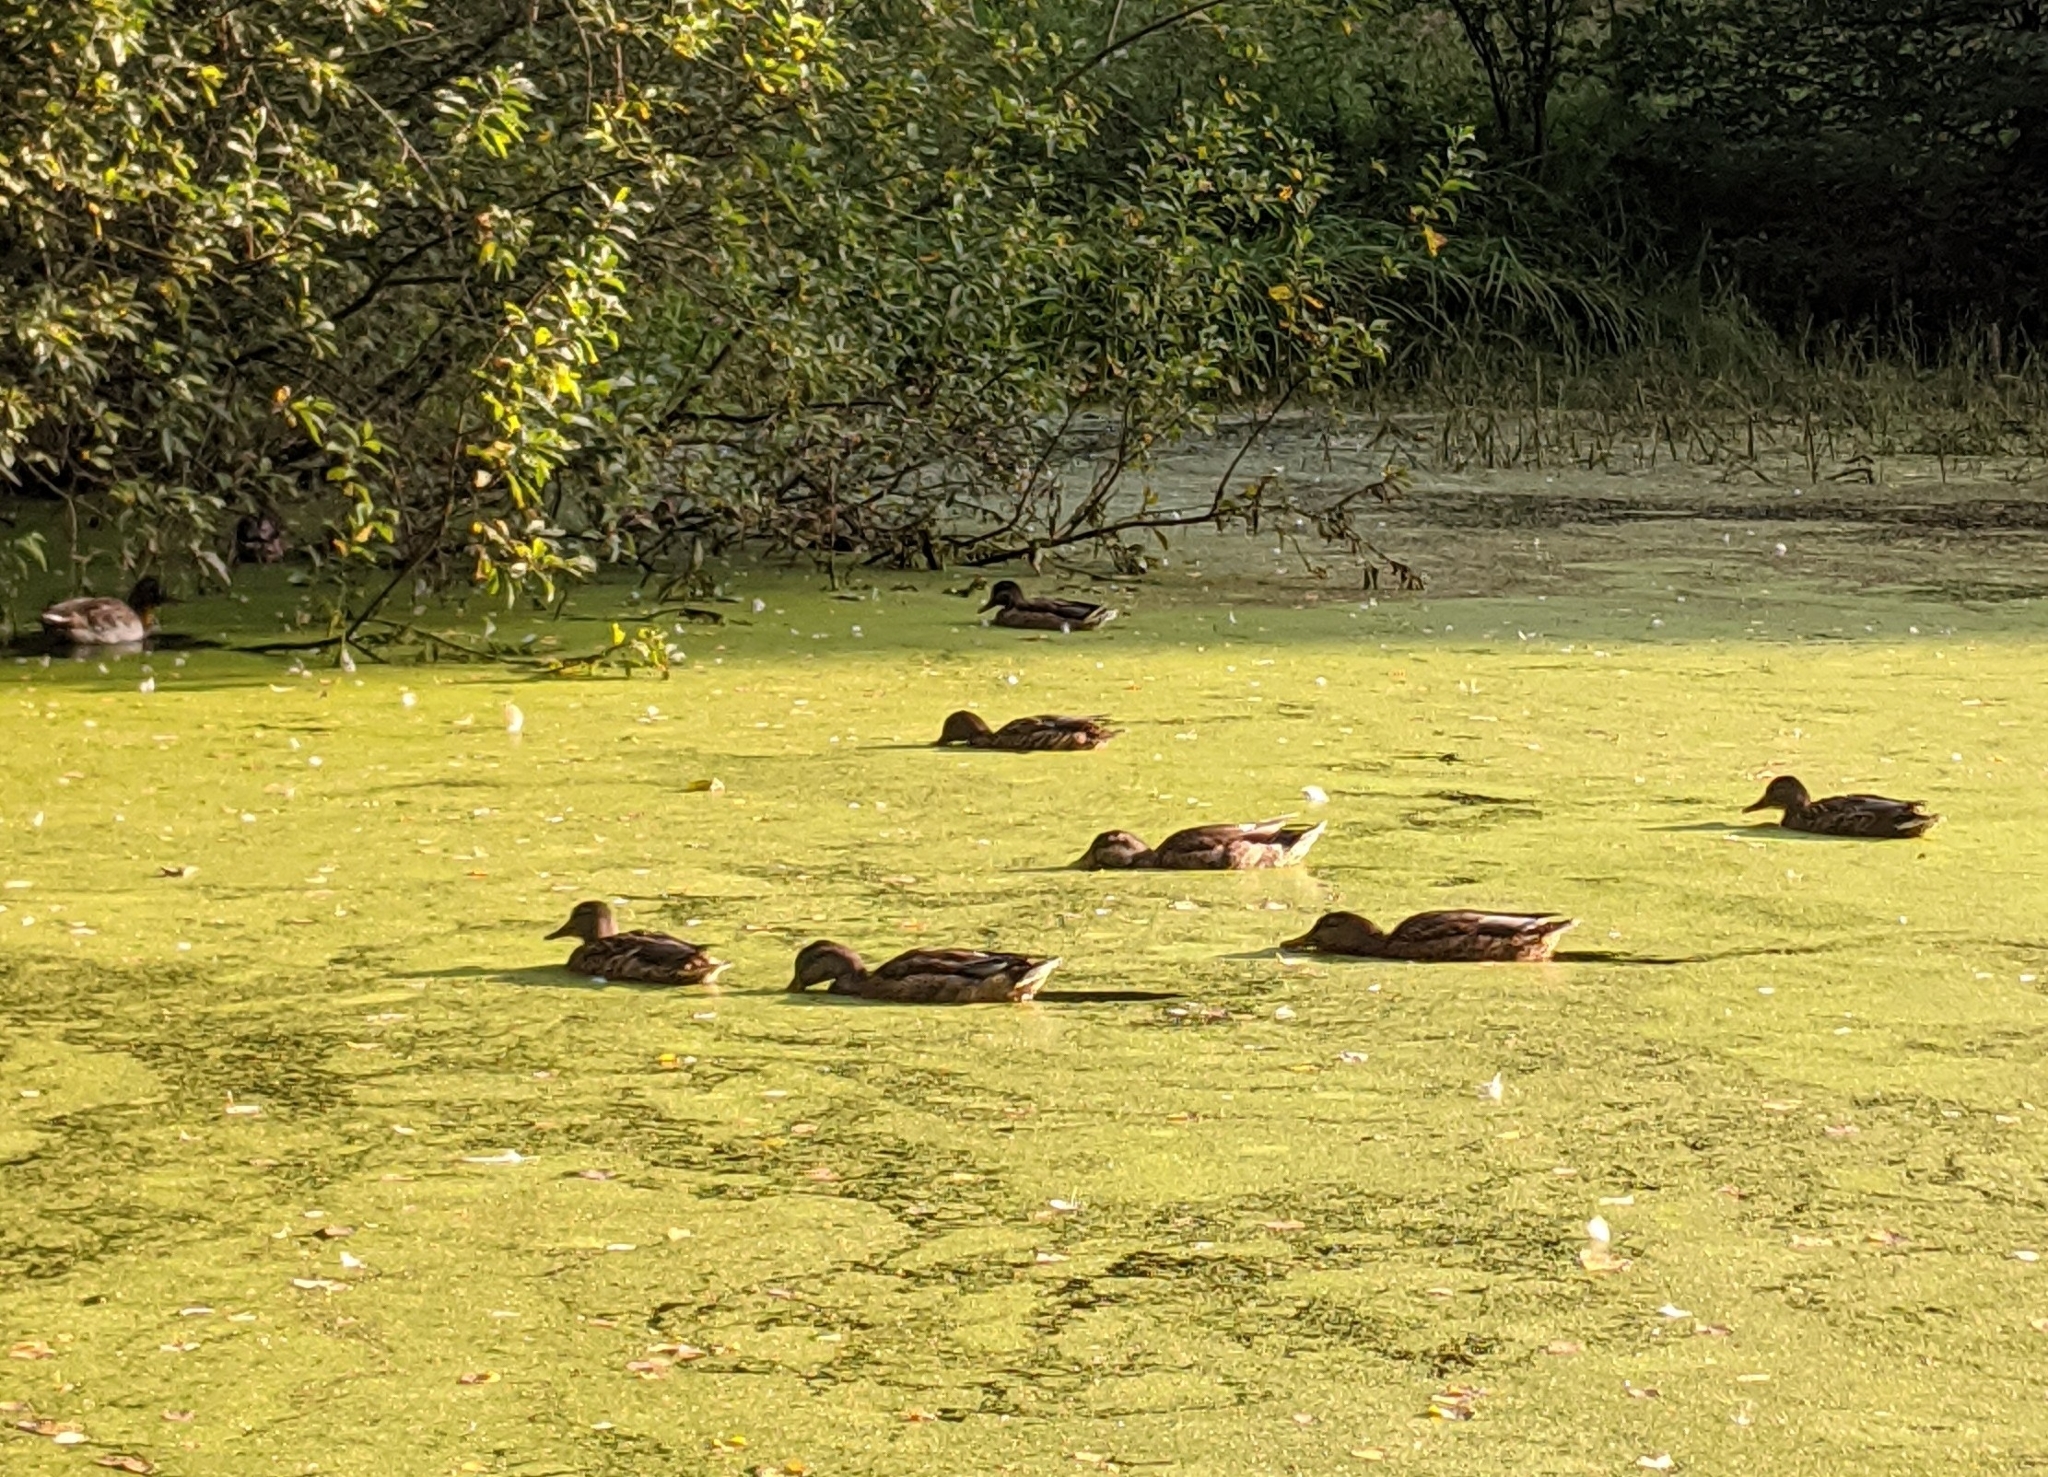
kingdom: Animalia
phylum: Chordata
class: Aves
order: Anseriformes
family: Anatidae
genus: Anas
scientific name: Anas platyrhynchos
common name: Mallard
